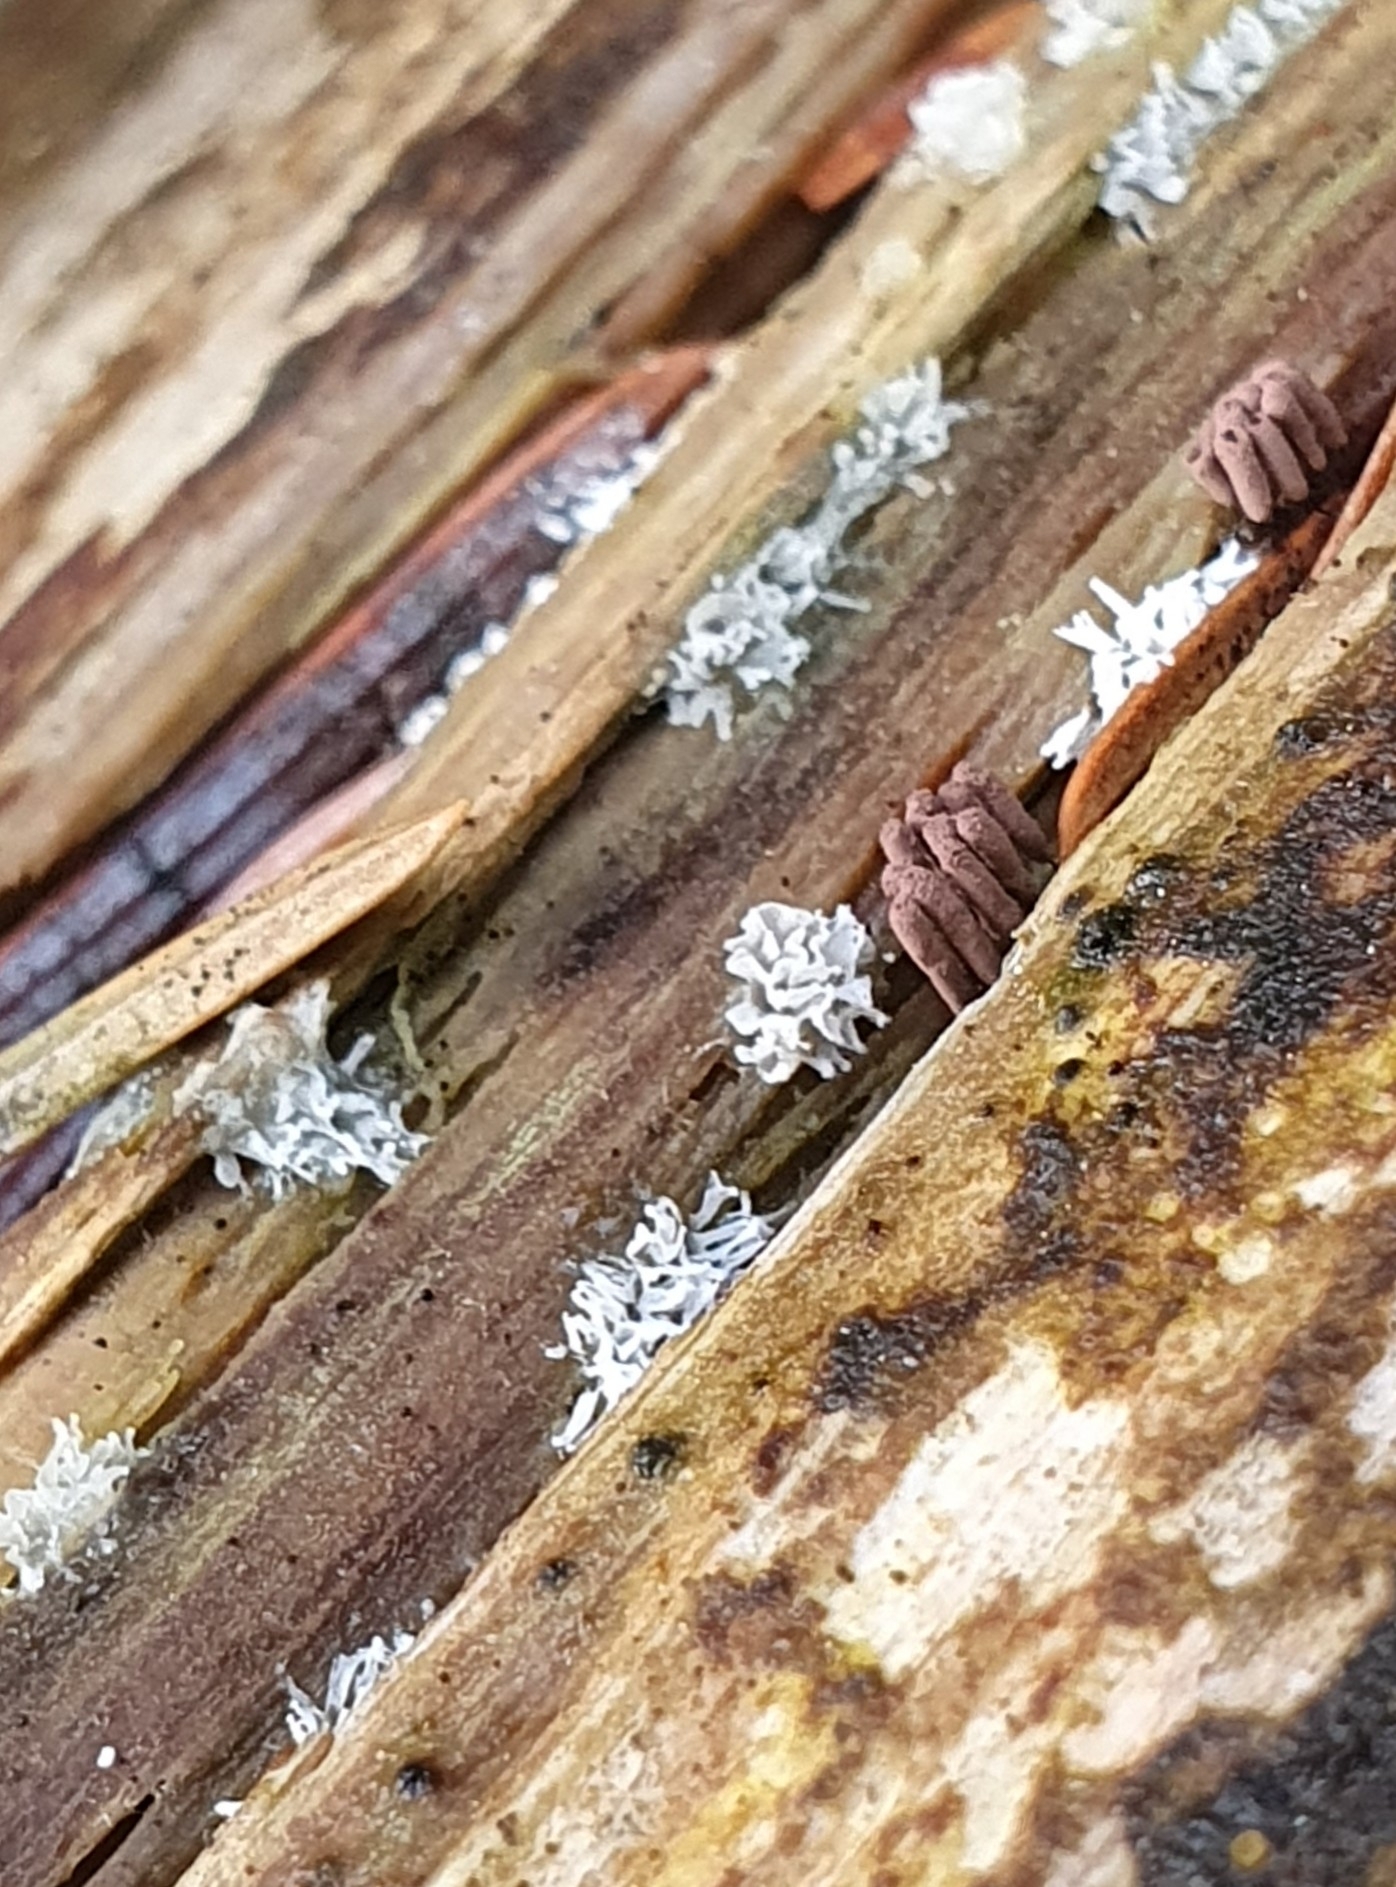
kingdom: Protozoa
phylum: Mycetozoa
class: Protosteliomycetes
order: Ceratiomyxales
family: Ceratiomyxaceae
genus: Ceratiomyxa
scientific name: Ceratiomyxa fruticulosa
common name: Honeycomb coral slime mold
